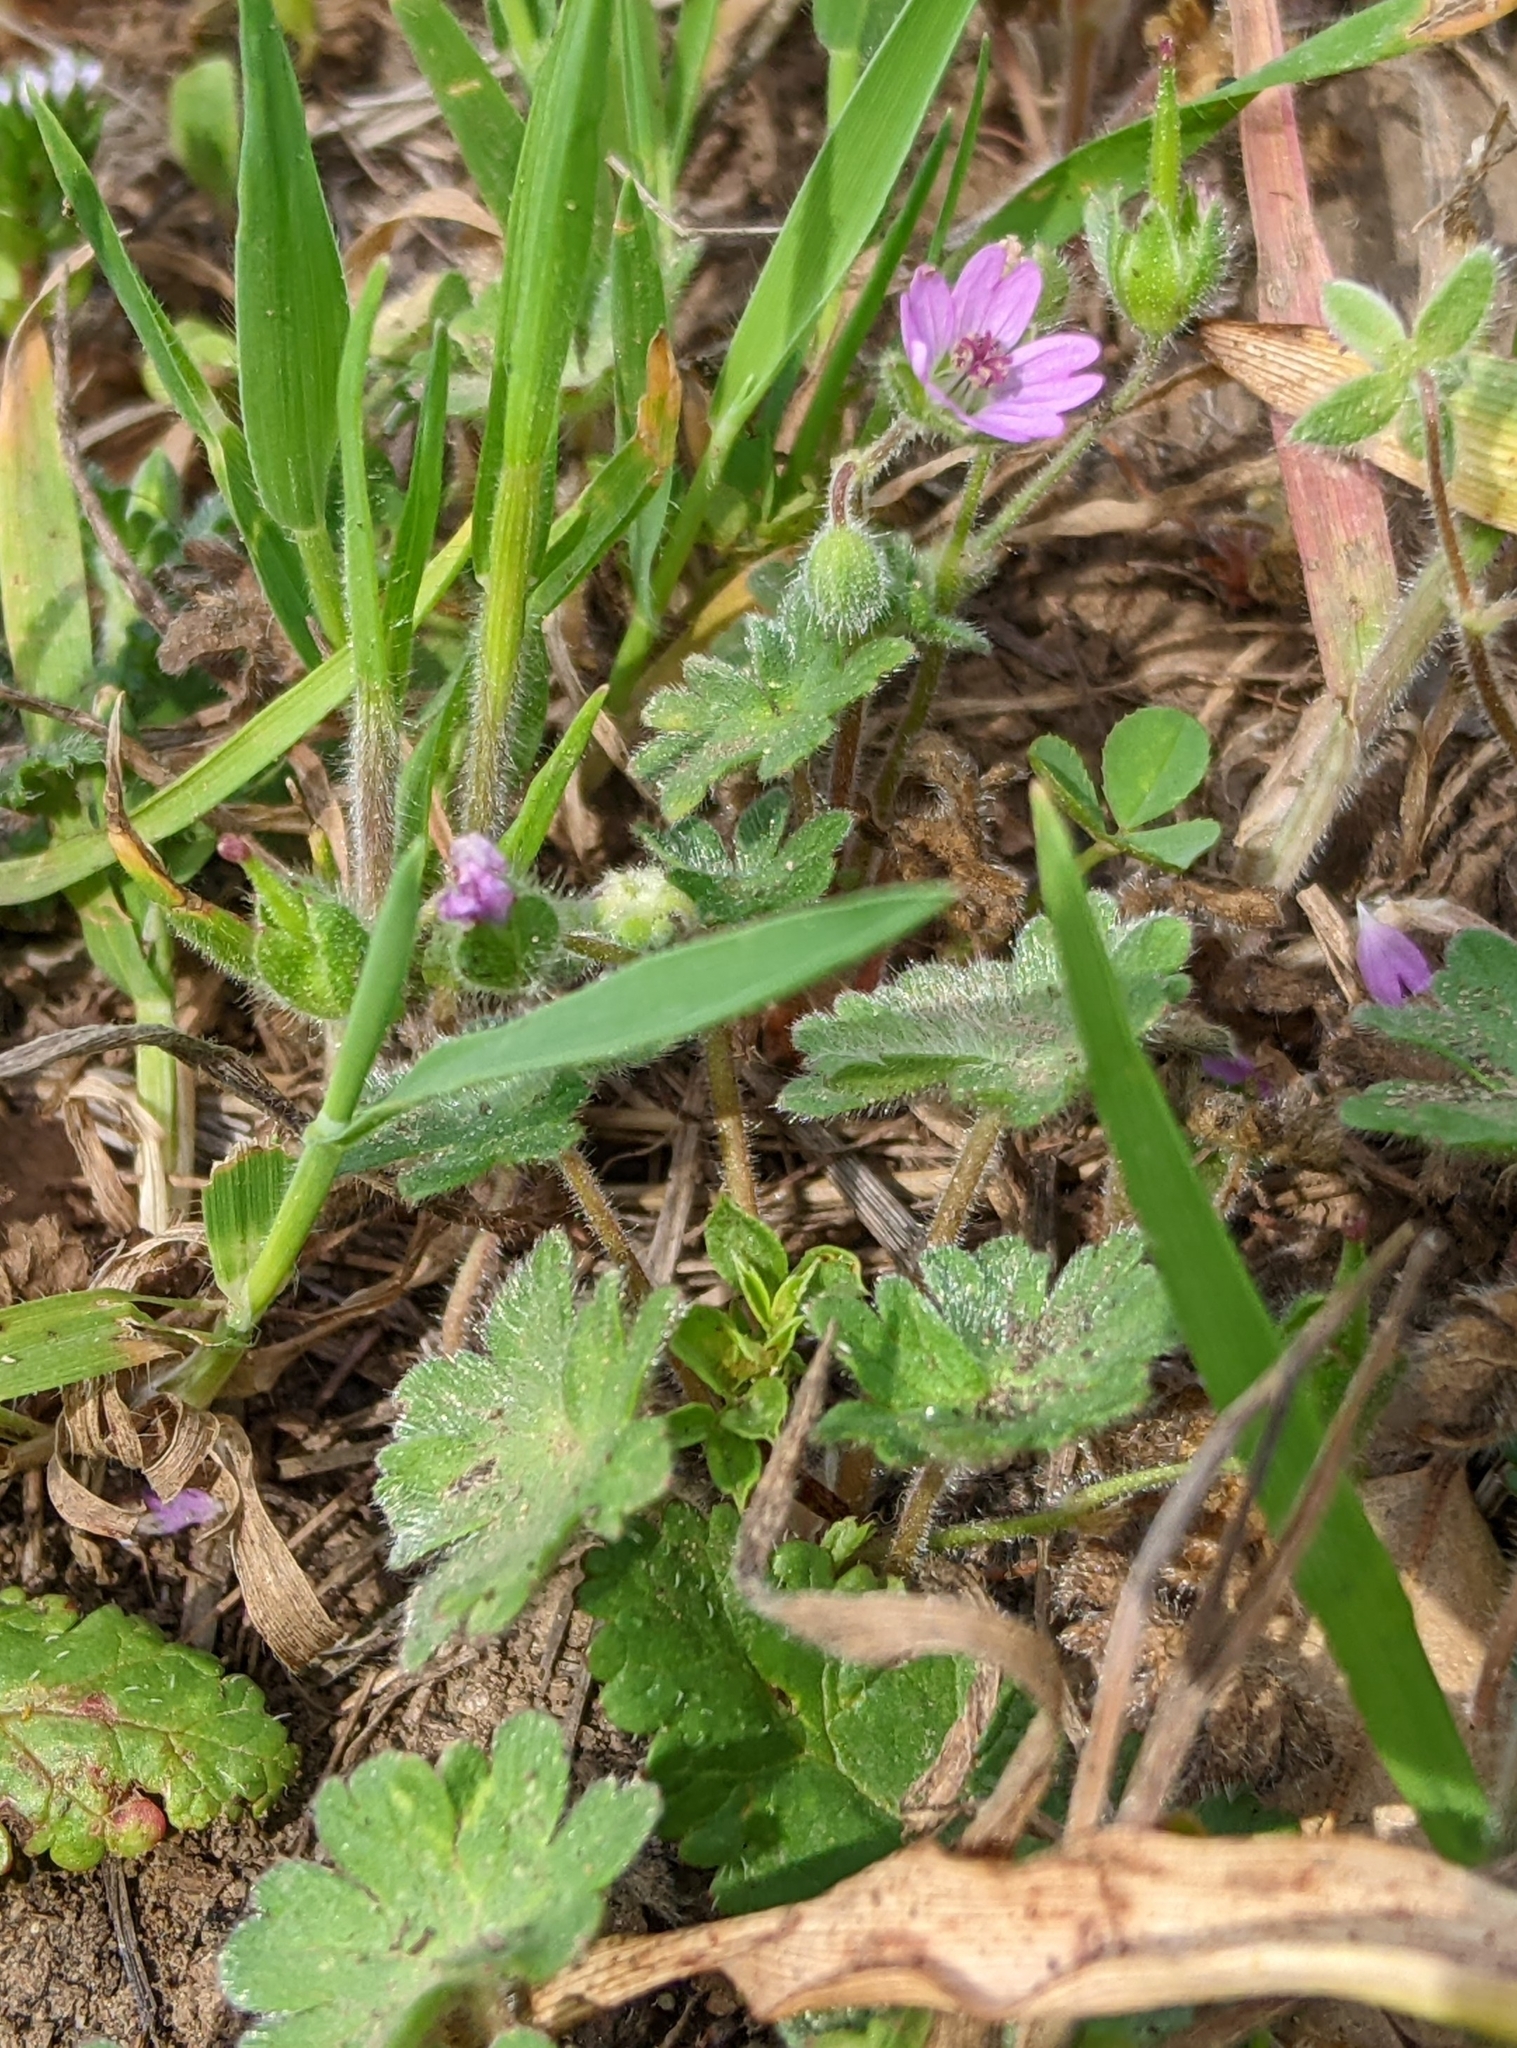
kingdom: Plantae
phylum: Tracheophyta
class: Magnoliopsida
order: Geraniales
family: Geraniaceae
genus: Geranium
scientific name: Geranium molle
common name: Dove's-foot crane's-bill
